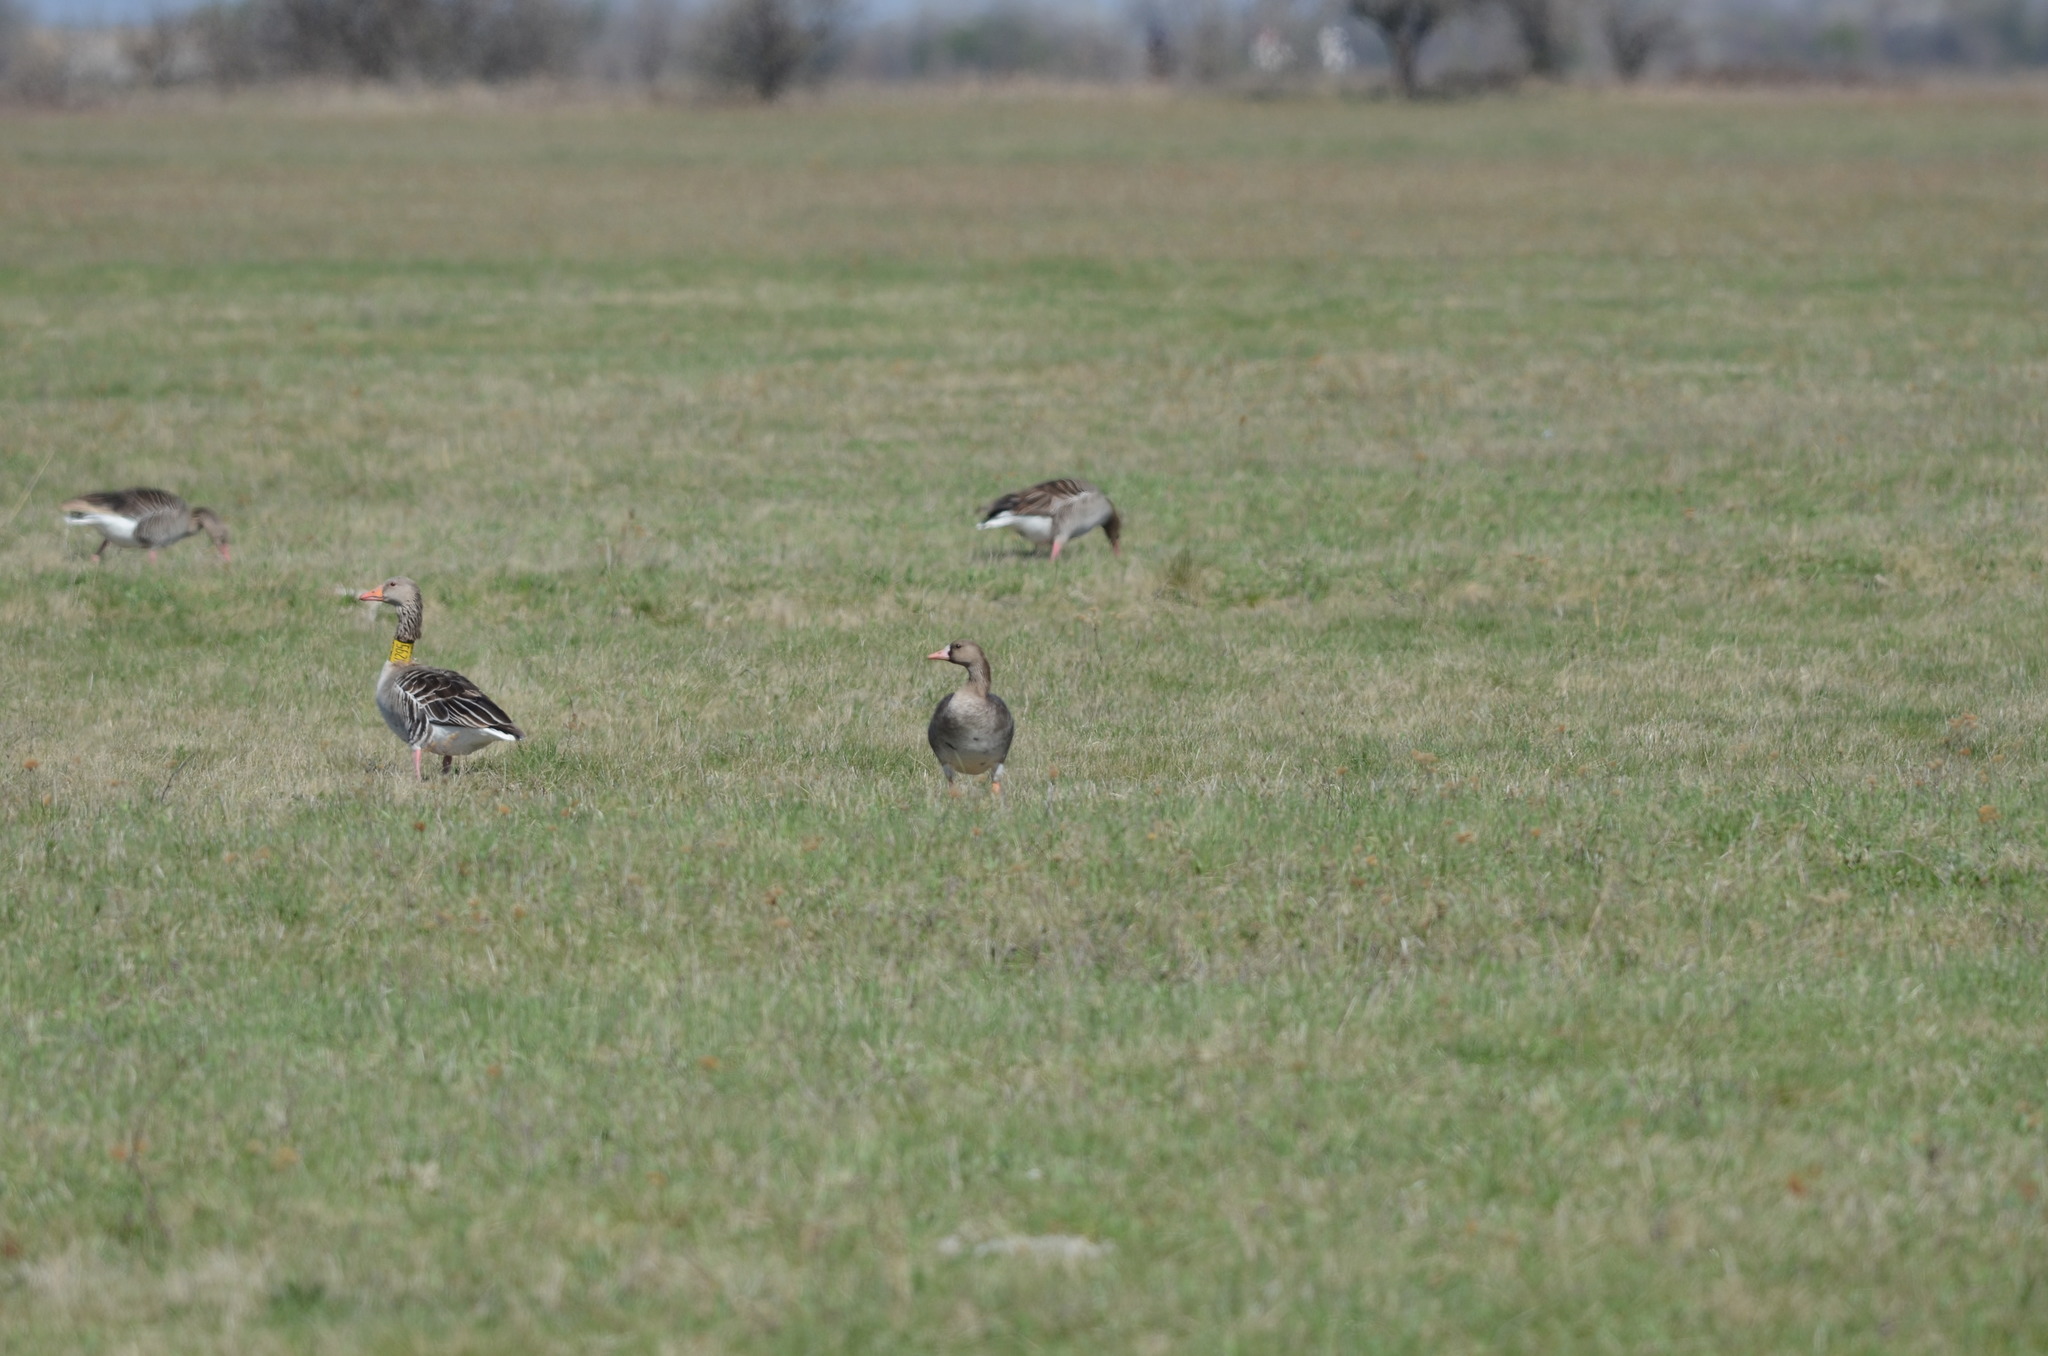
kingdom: Animalia
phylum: Chordata
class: Aves
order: Anseriformes
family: Anatidae
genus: Anser
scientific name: Anser albifrons
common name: Greater white-fronted goose
